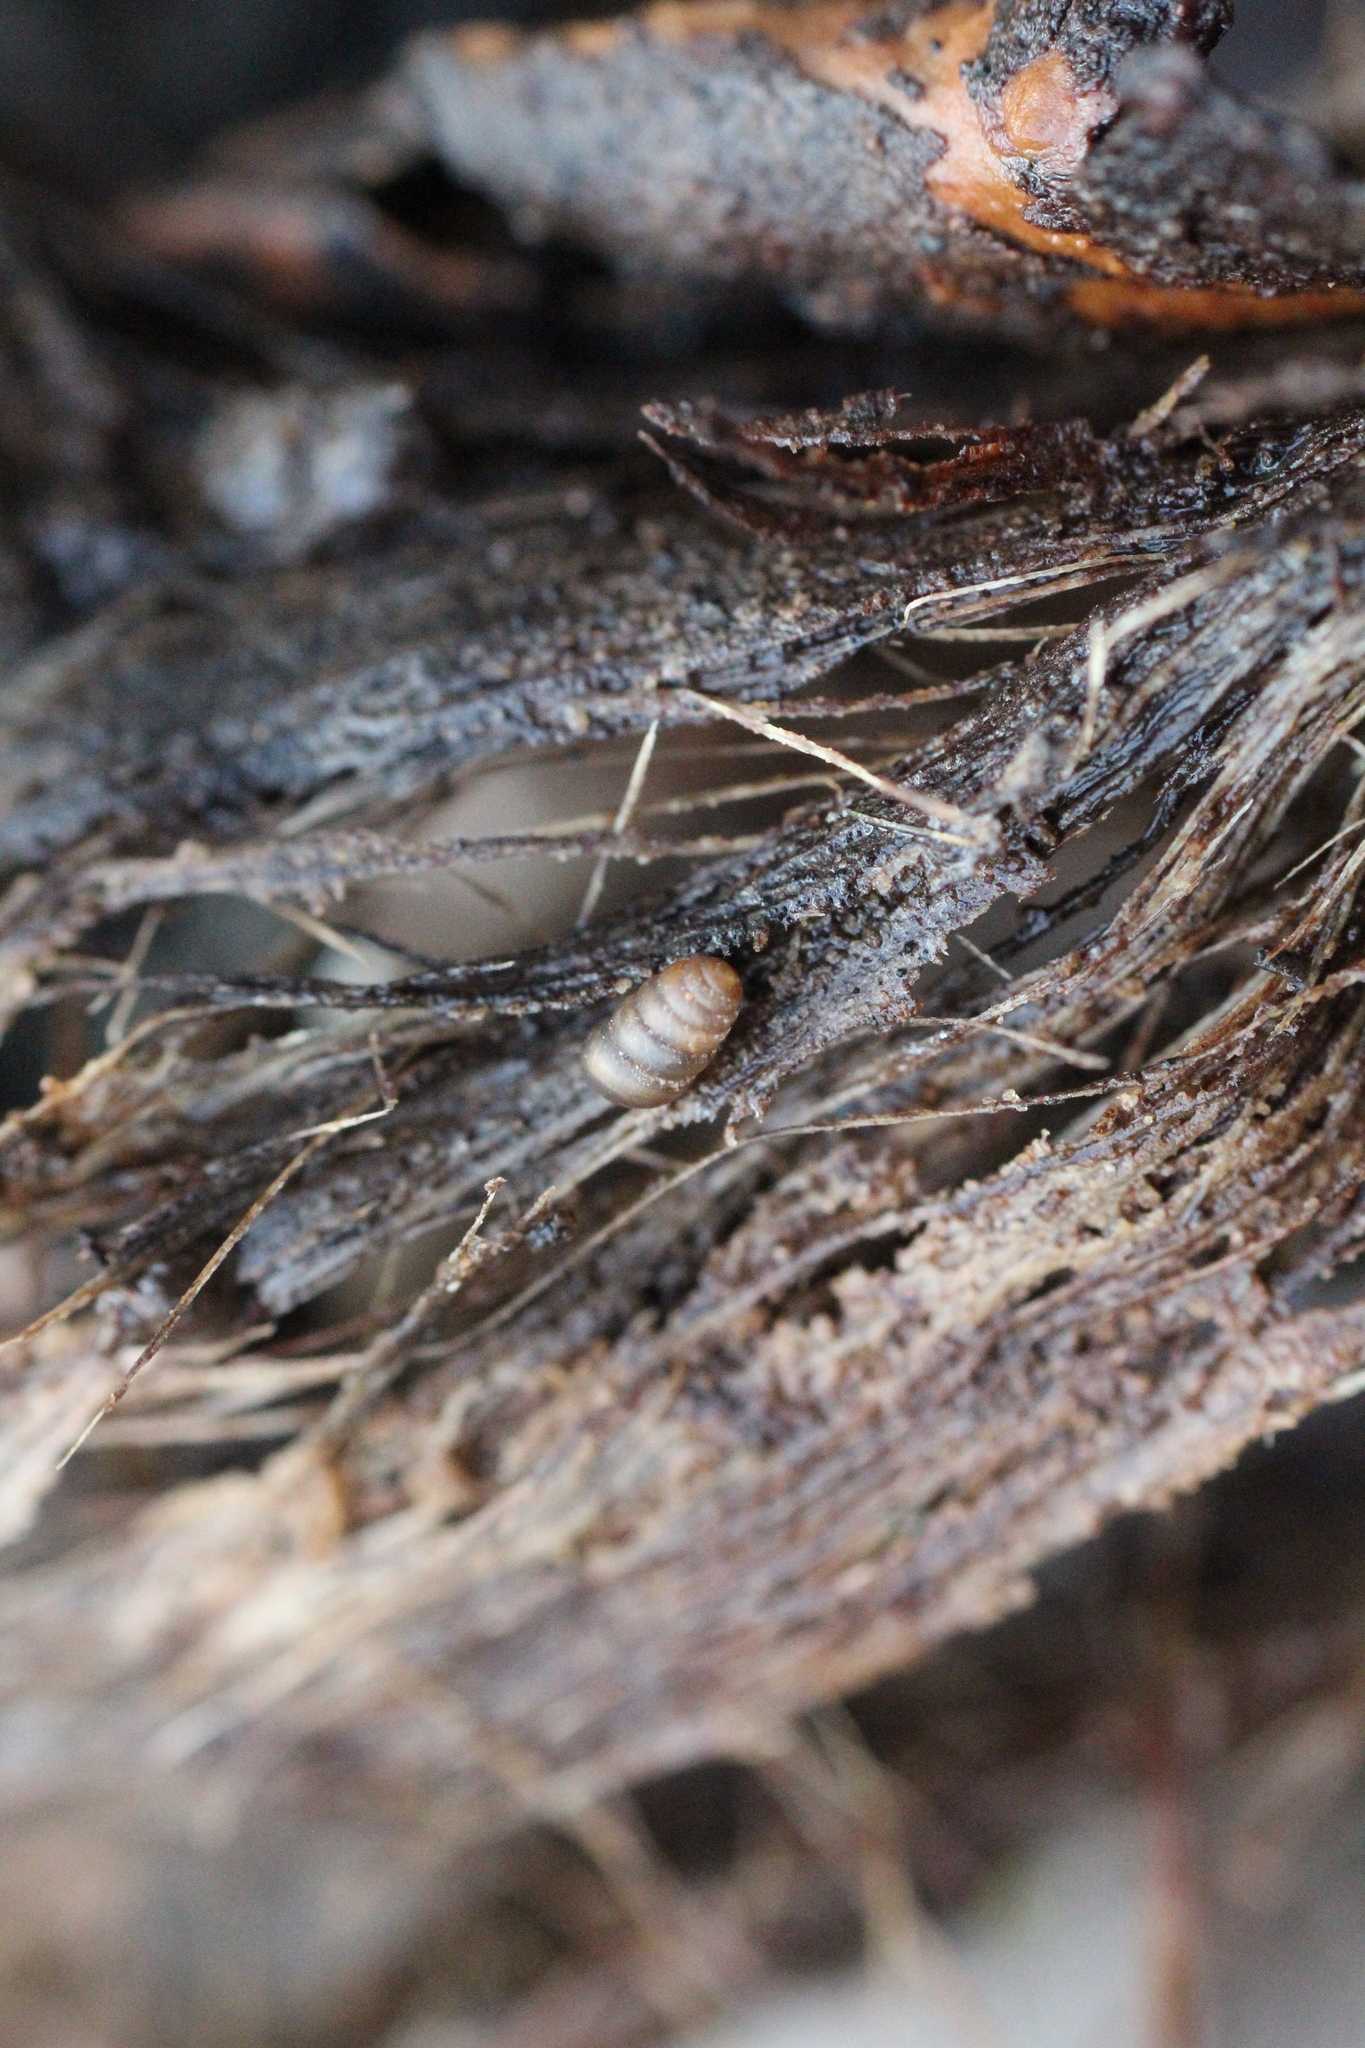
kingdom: Animalia
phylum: Mollusca
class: Gastropoda
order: Stylommatophora
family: Lauriidae
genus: Lauria
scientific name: Lauria cylindracea
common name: Common chrysalis snail
